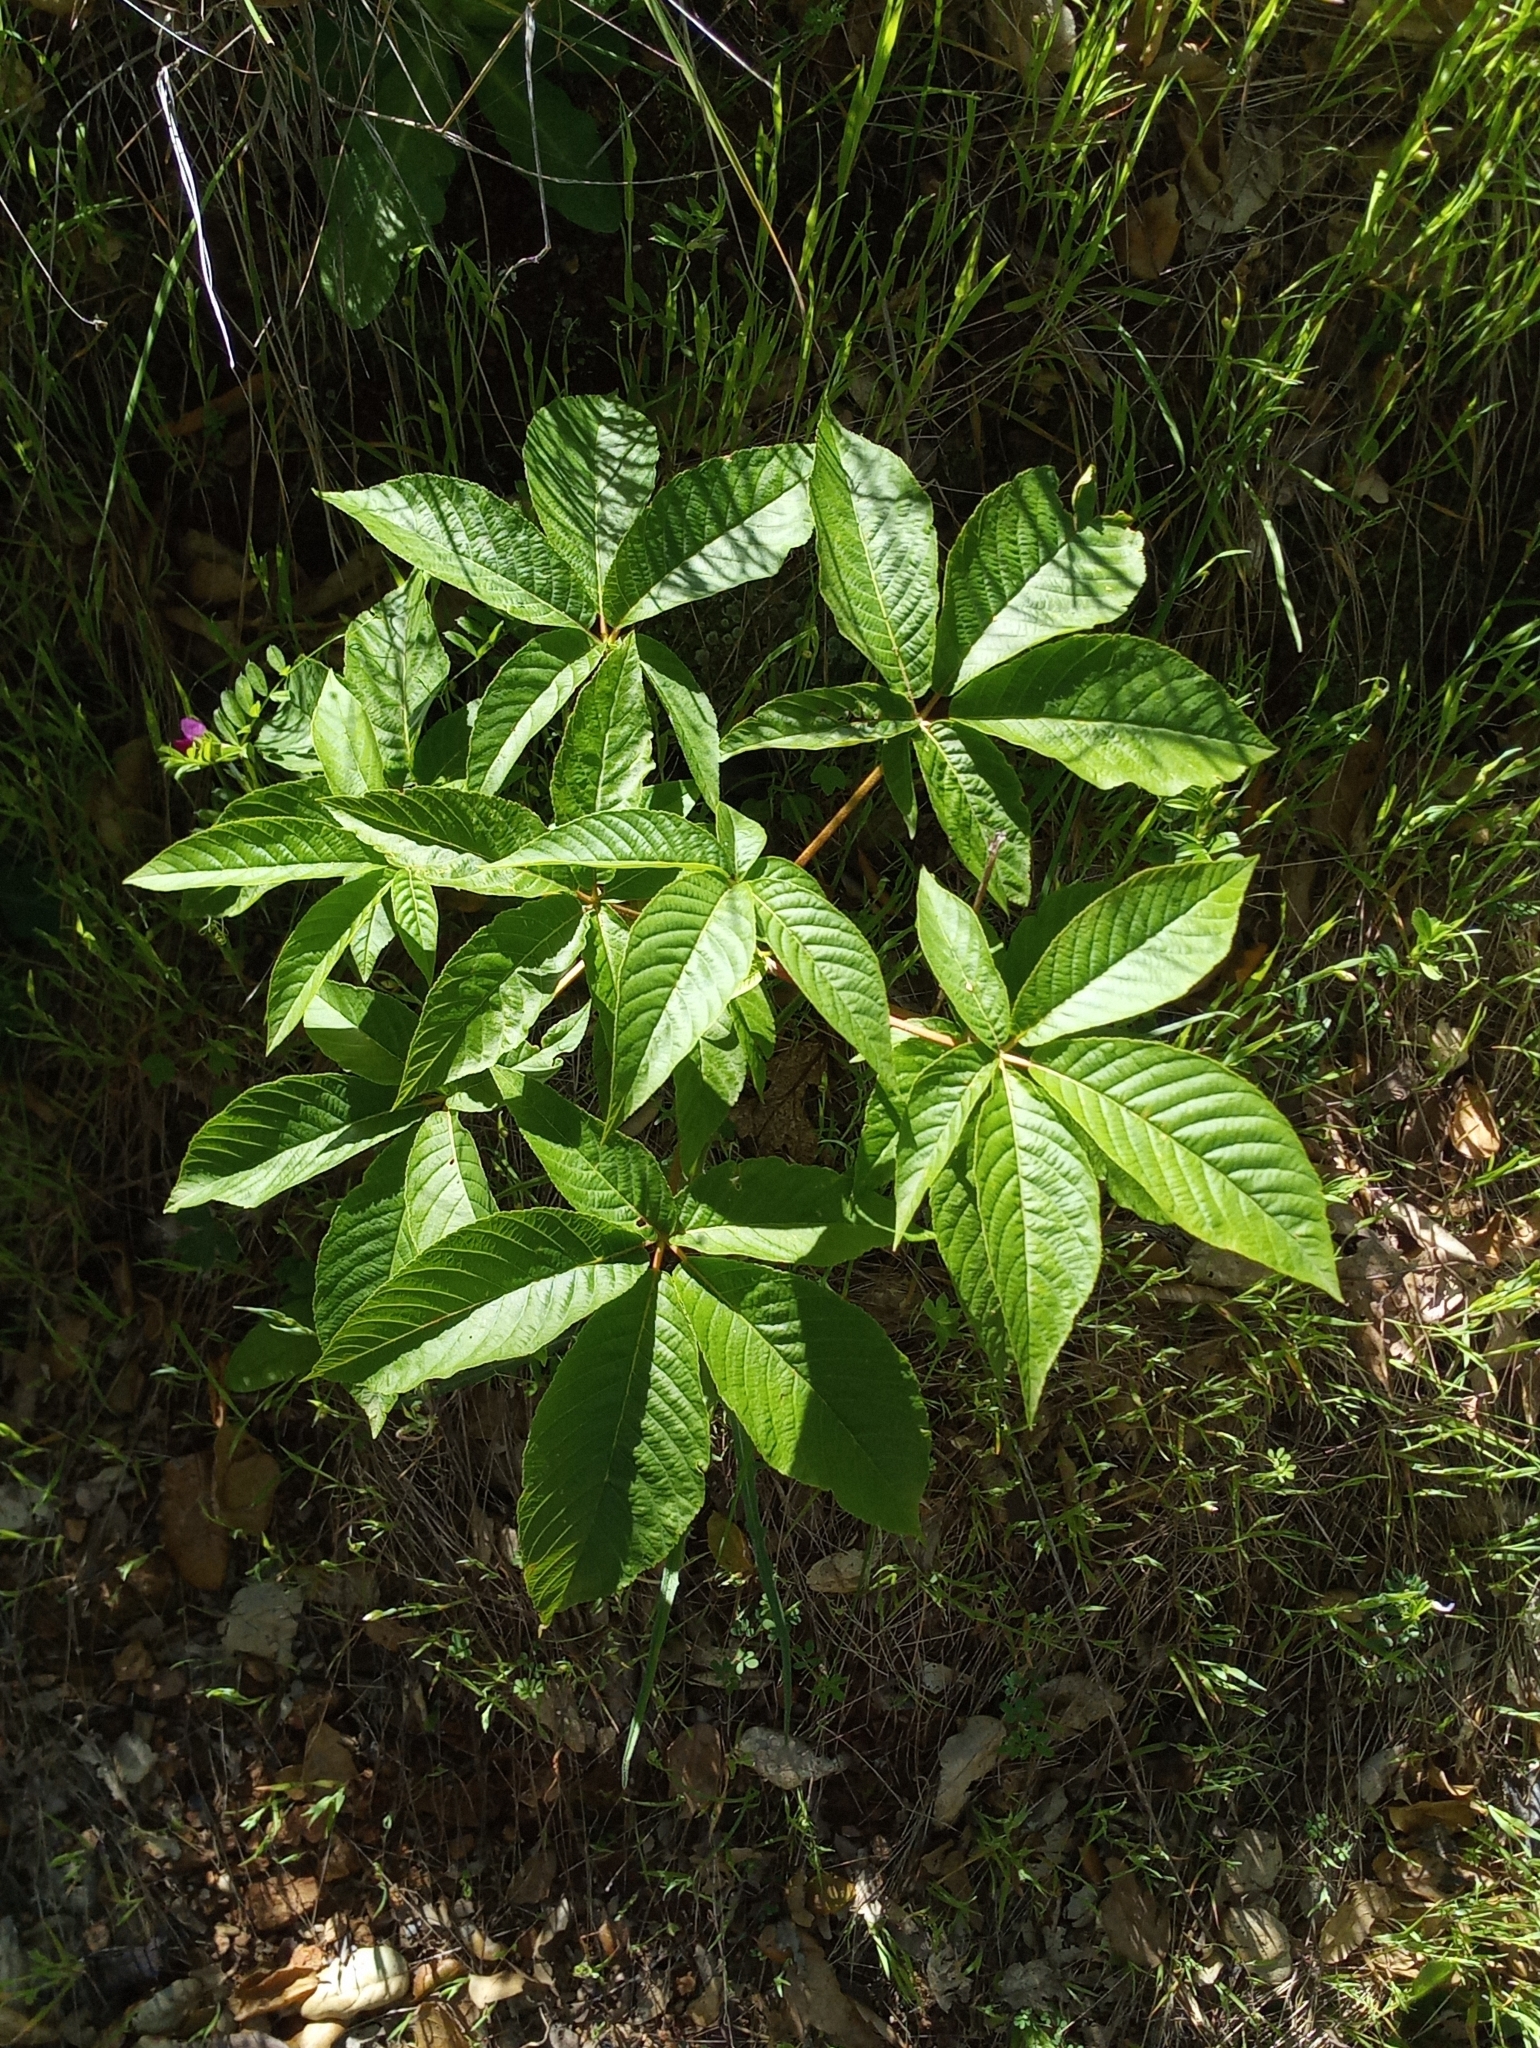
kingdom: Plantae
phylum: Tracheophyta
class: Magnoliopsida
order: Sapindales
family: Sapindaceae
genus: Aesculus
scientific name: Aesculus californica
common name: California buckeye
